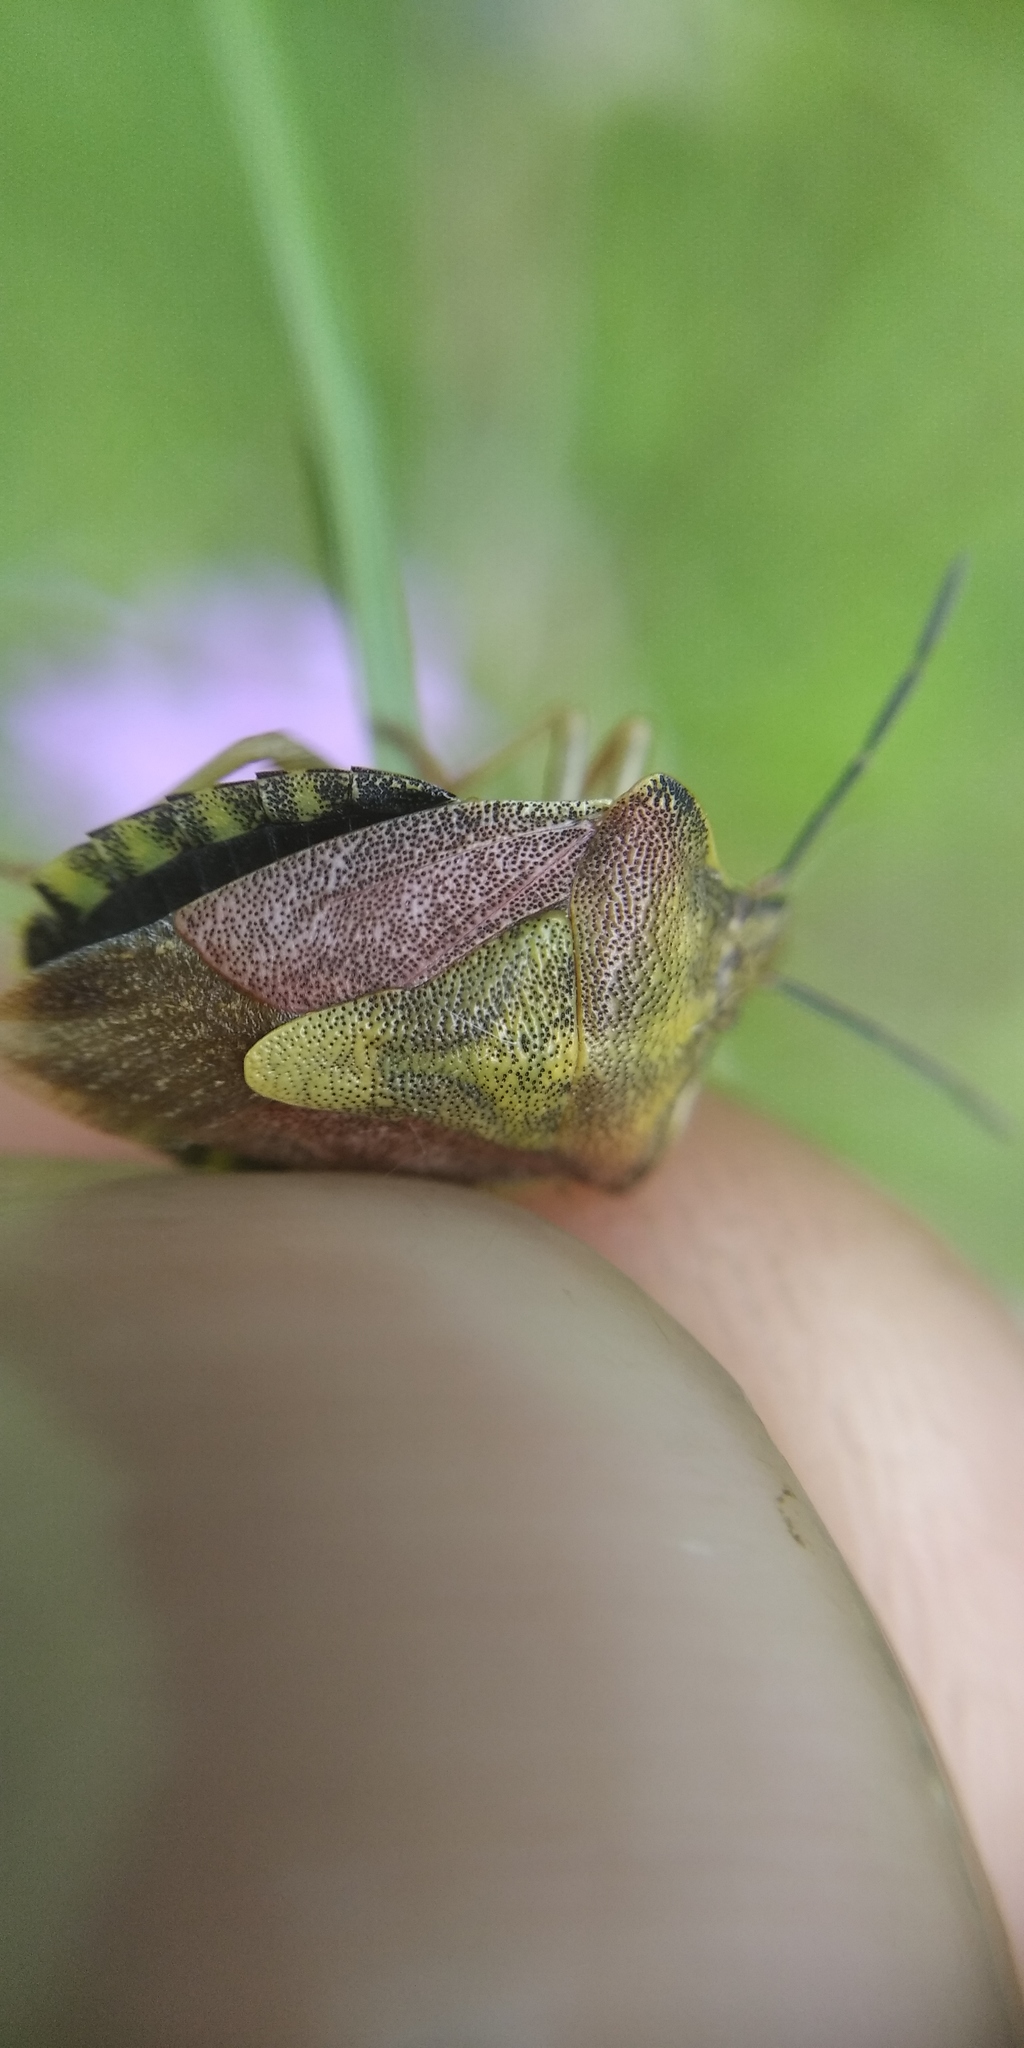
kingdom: Animalia
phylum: Arthropoda
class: Insecta
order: Hemiptera
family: Pentatomidae
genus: Carpocoris
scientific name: Carpocoris purpureipennis
